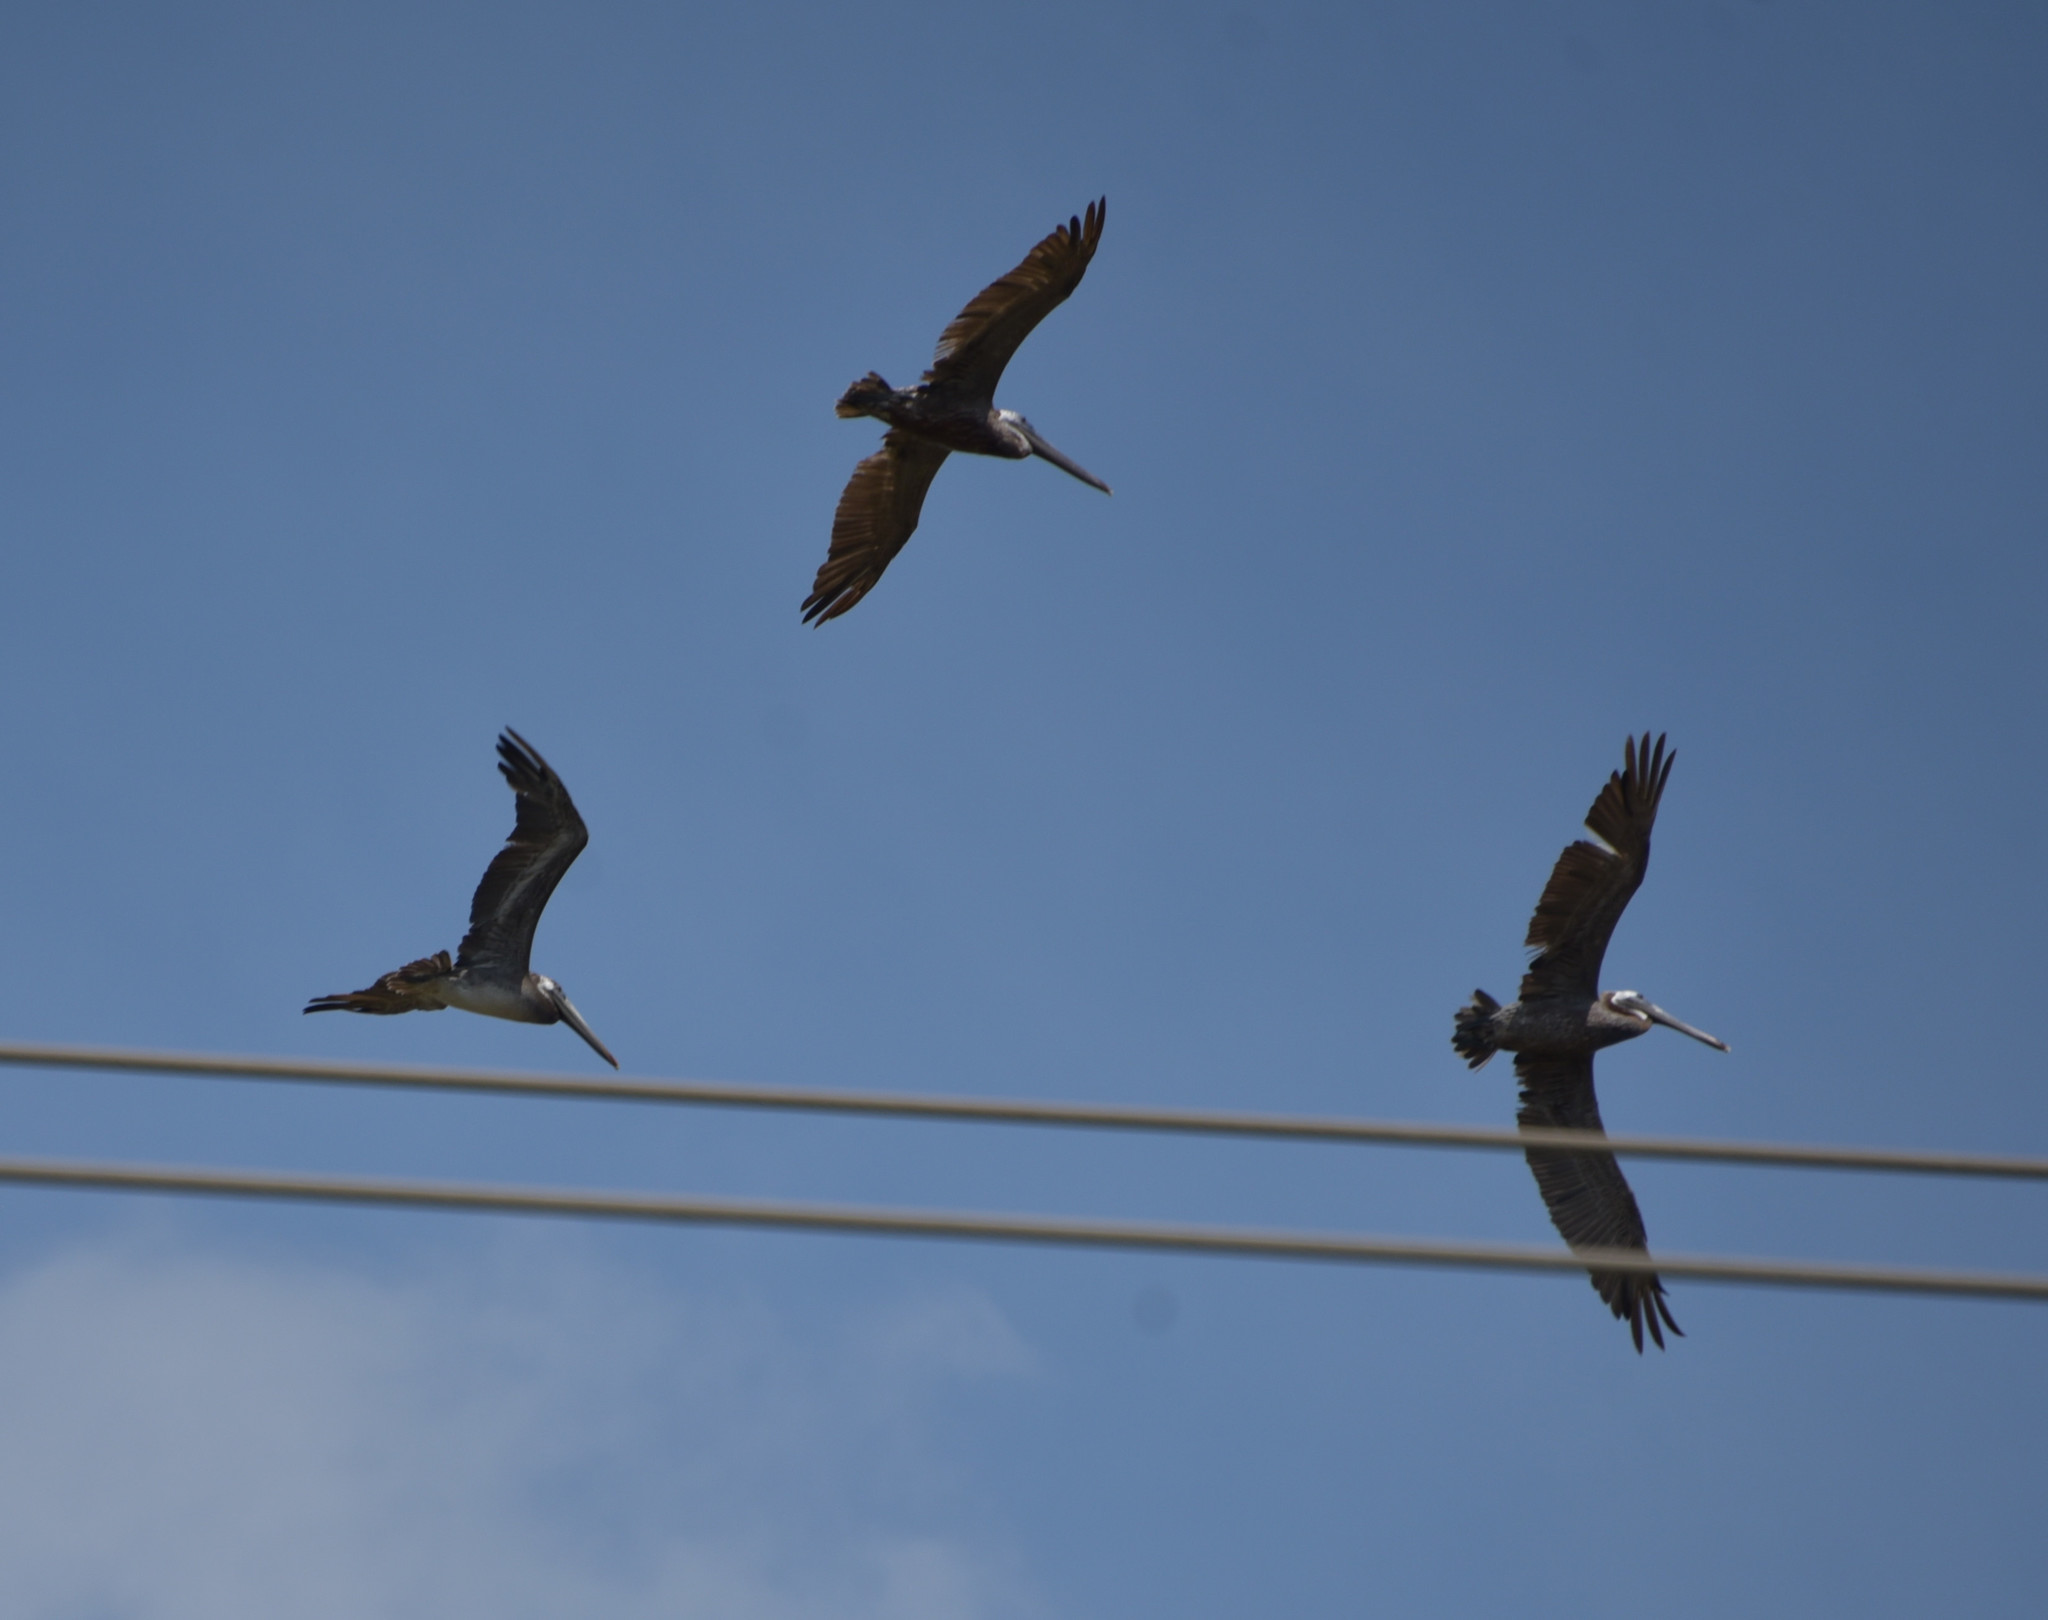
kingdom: Animalia
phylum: Chordata
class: Aves
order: Pelecaniformes
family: Pelecanidae
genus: Pelecanus
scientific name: Pelecanus occidentalis
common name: Brown pelican
